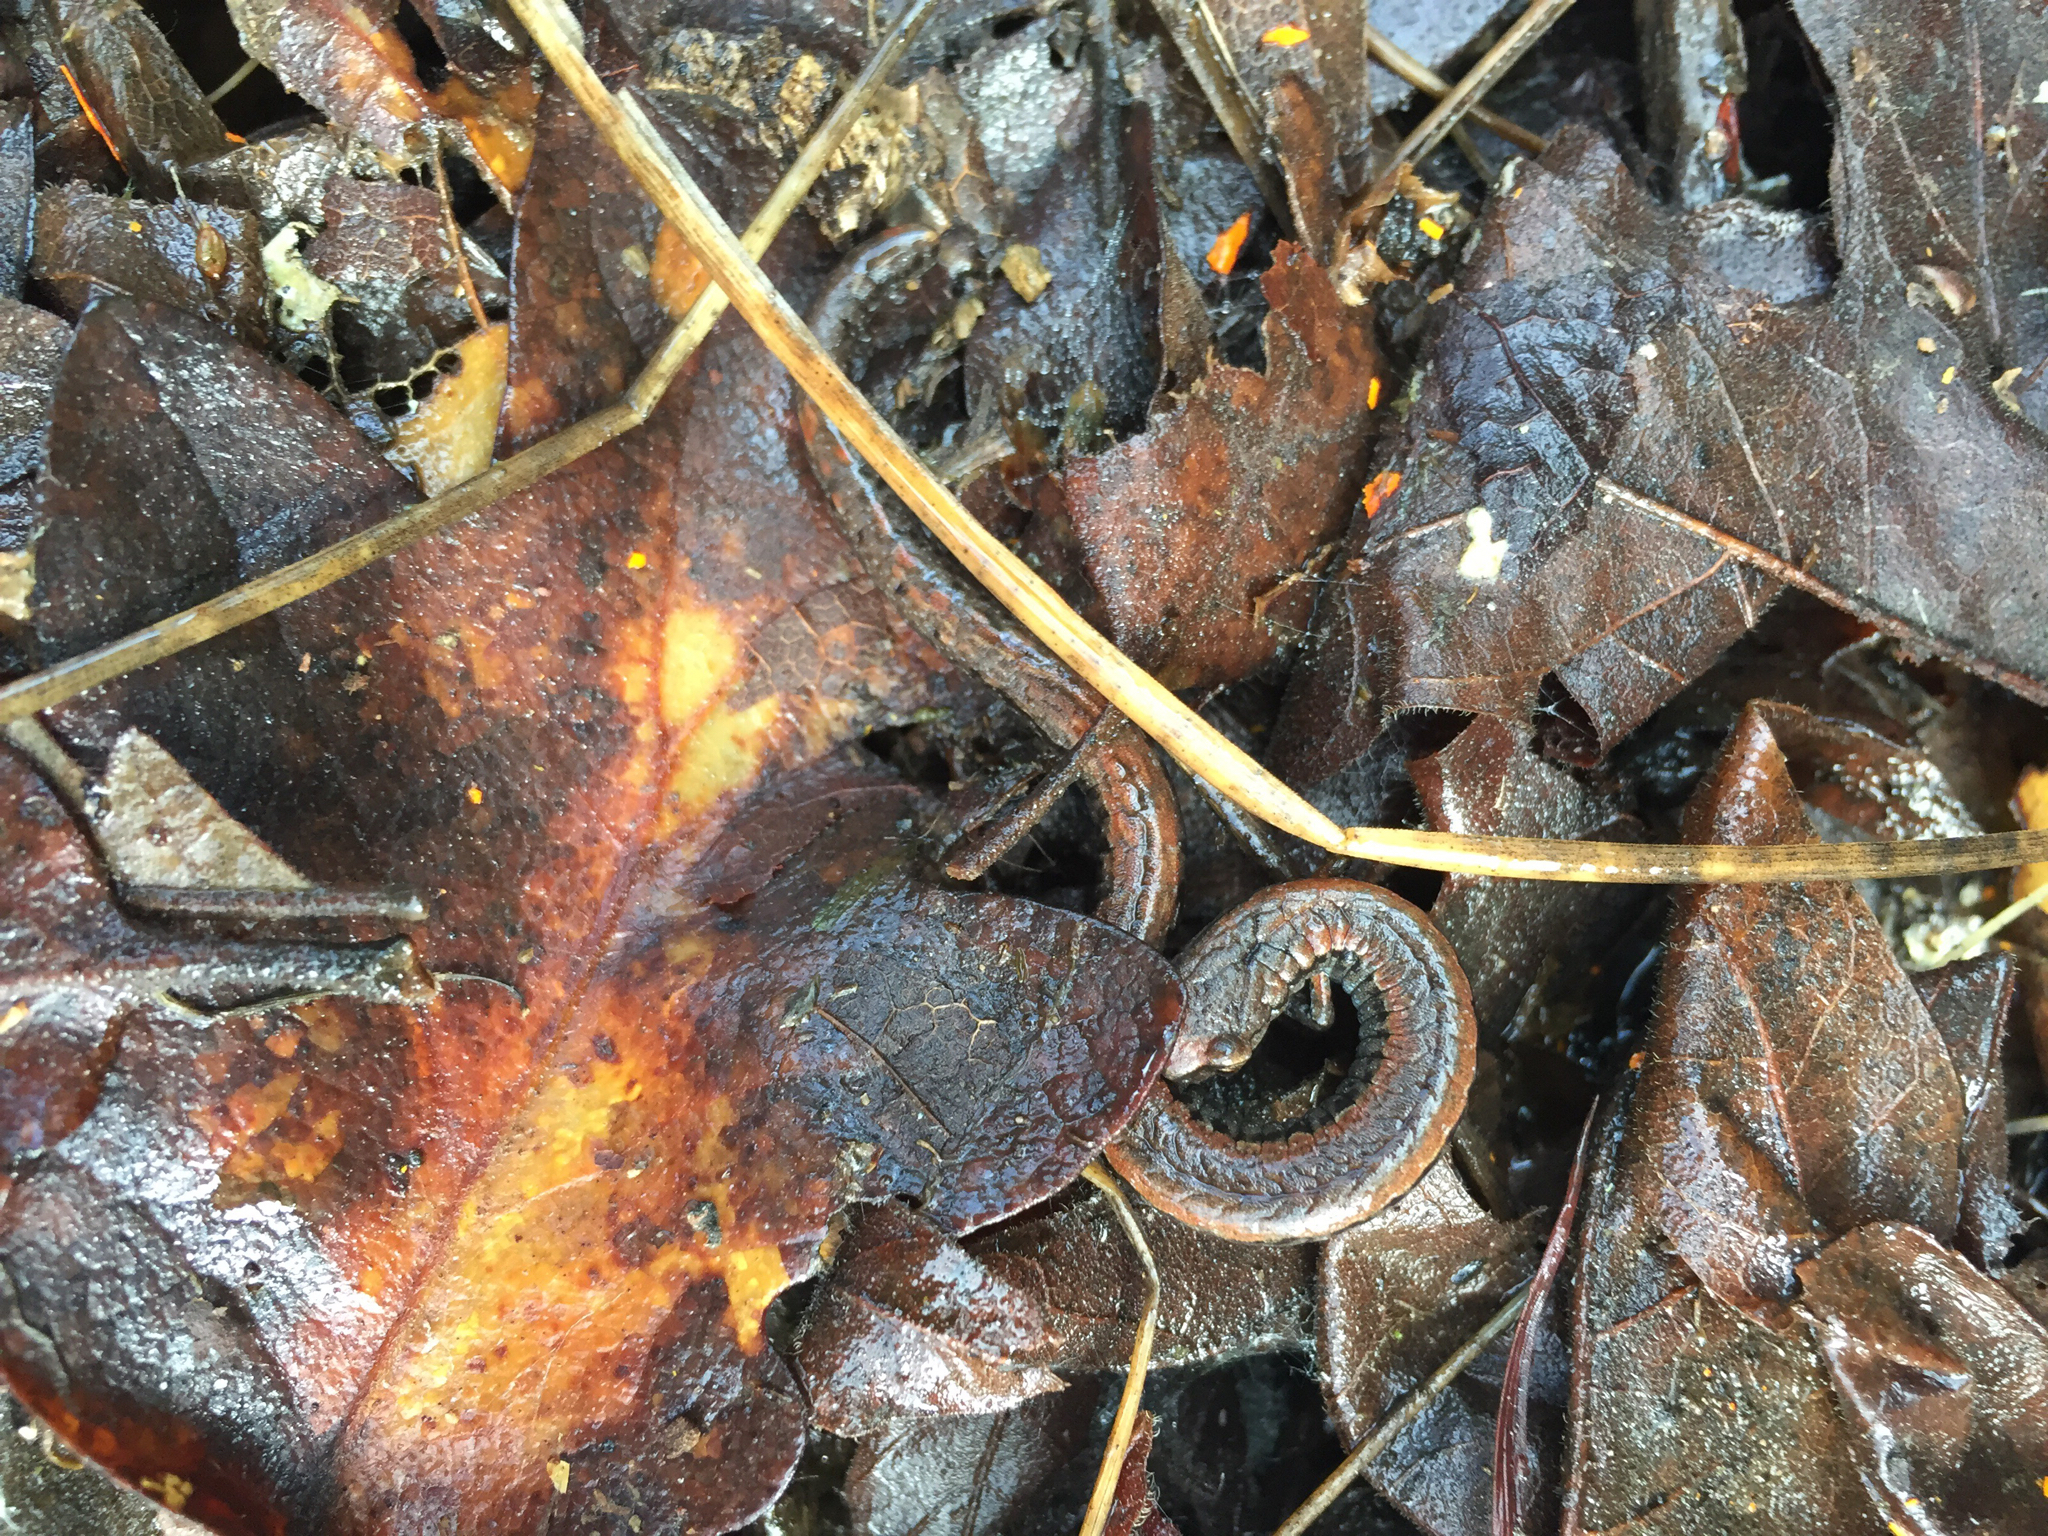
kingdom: Animalia
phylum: Chordata
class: Amphibia
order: Caudata
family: Plethodontidae
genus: Batrachoseps
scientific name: Batrachoseps attenuatus
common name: California slender salamander
